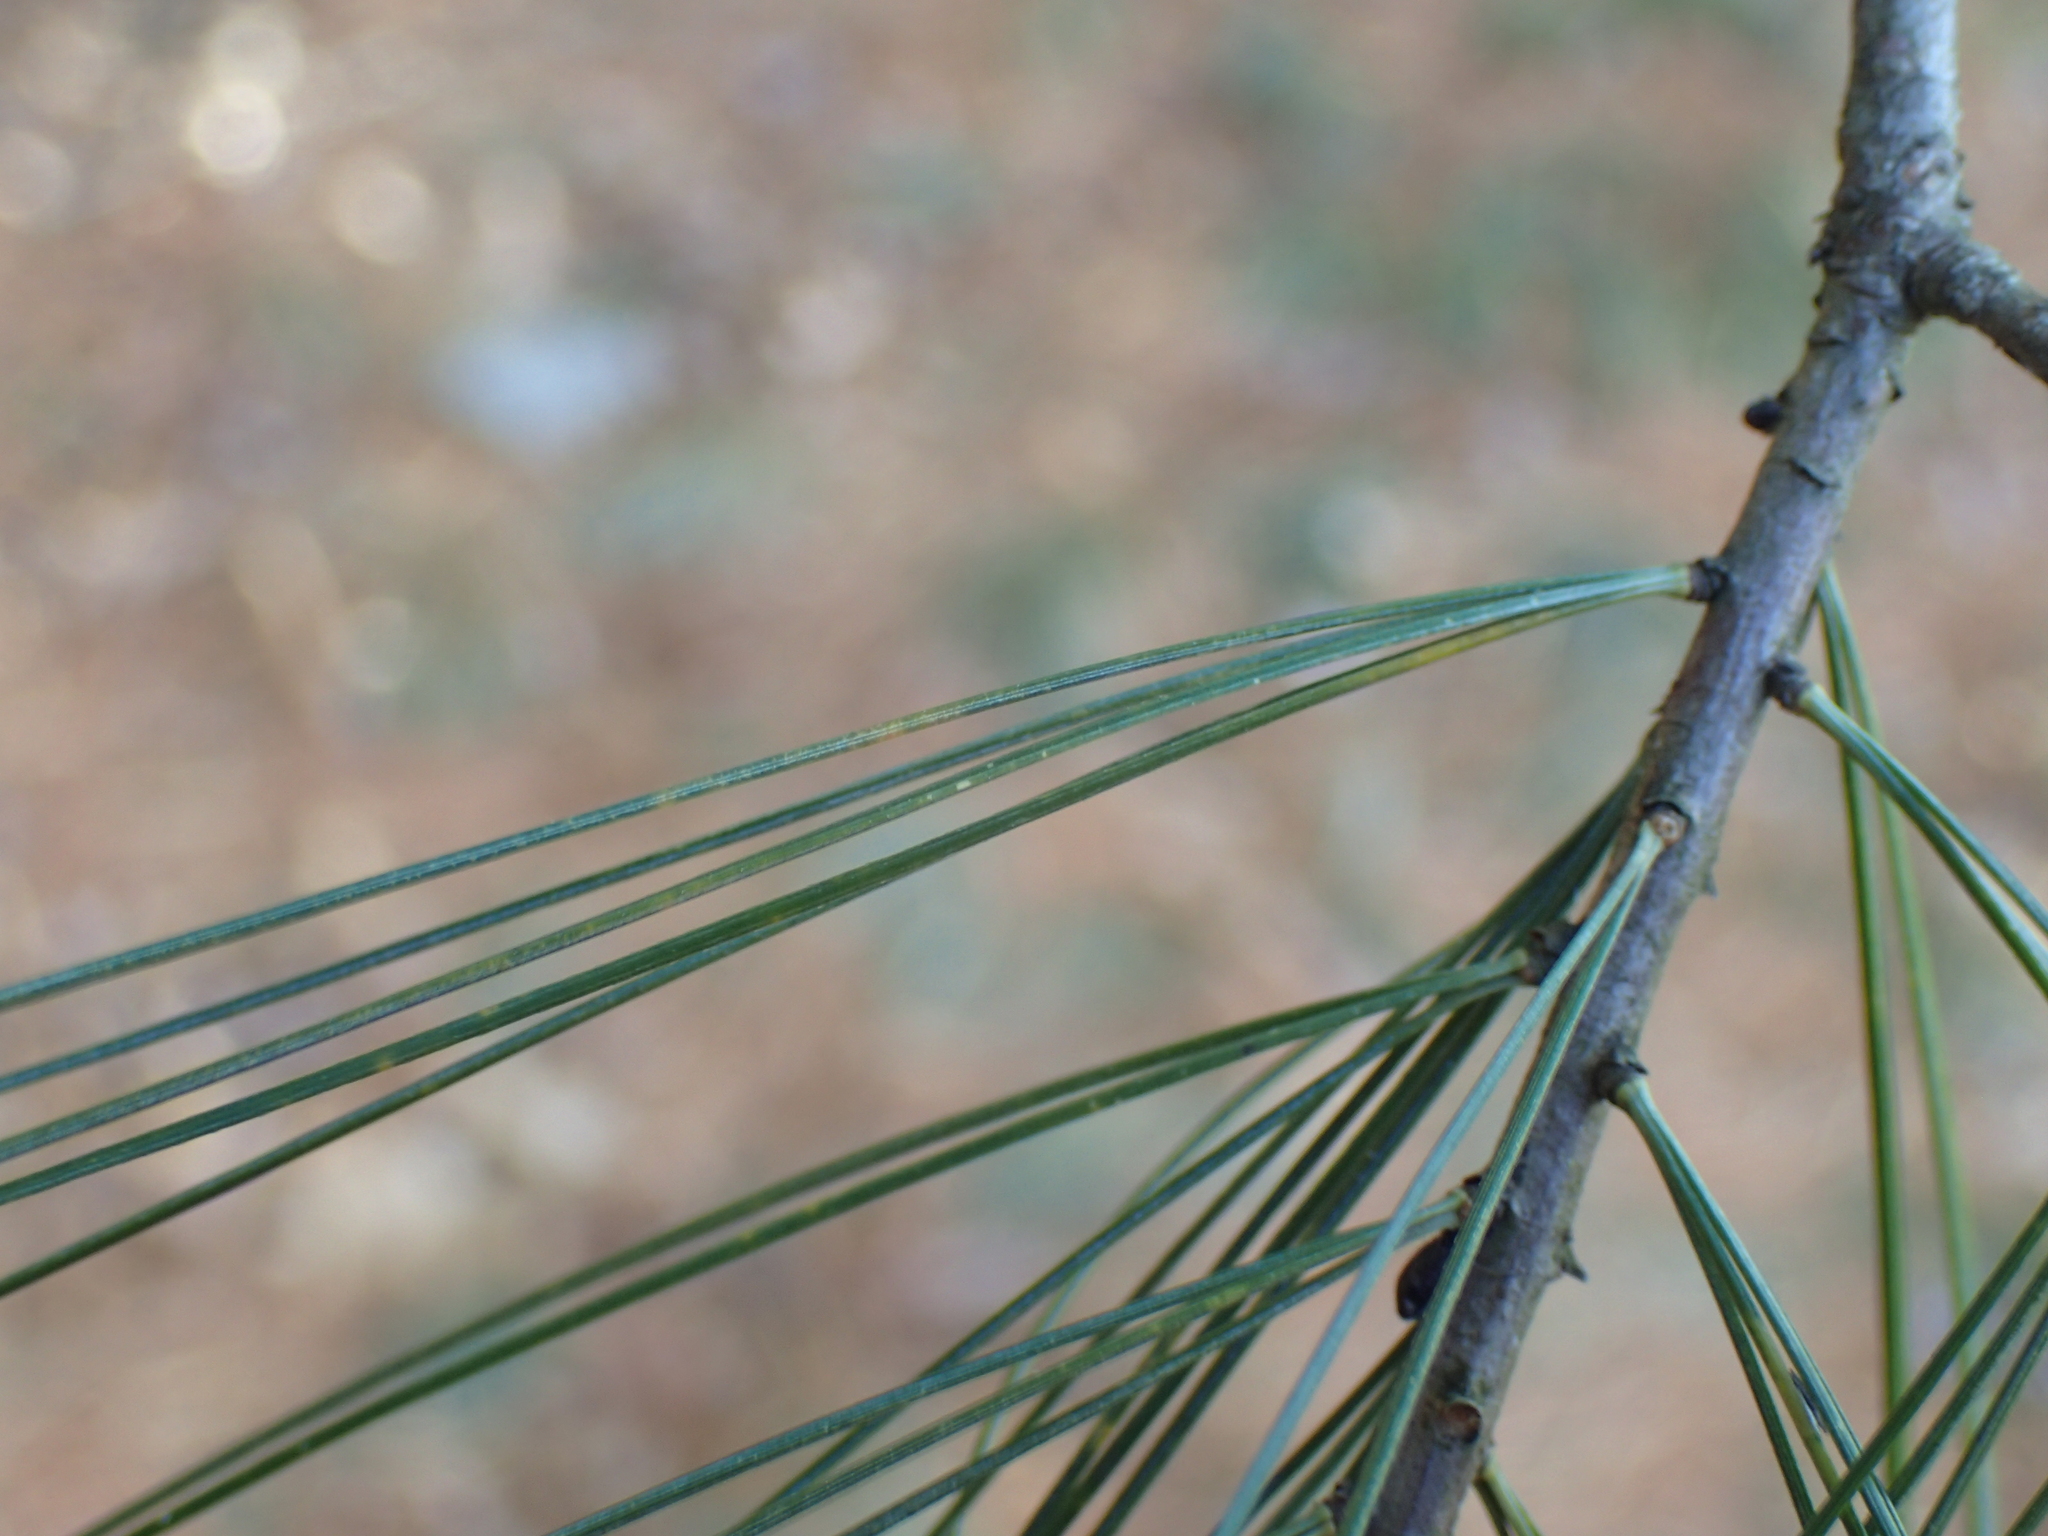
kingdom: Plantae
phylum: Tracheophyta
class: Pinopsida
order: Pinales
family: Pinaceae
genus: Pinus
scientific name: Pinus strobus
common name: Weymouth pine
